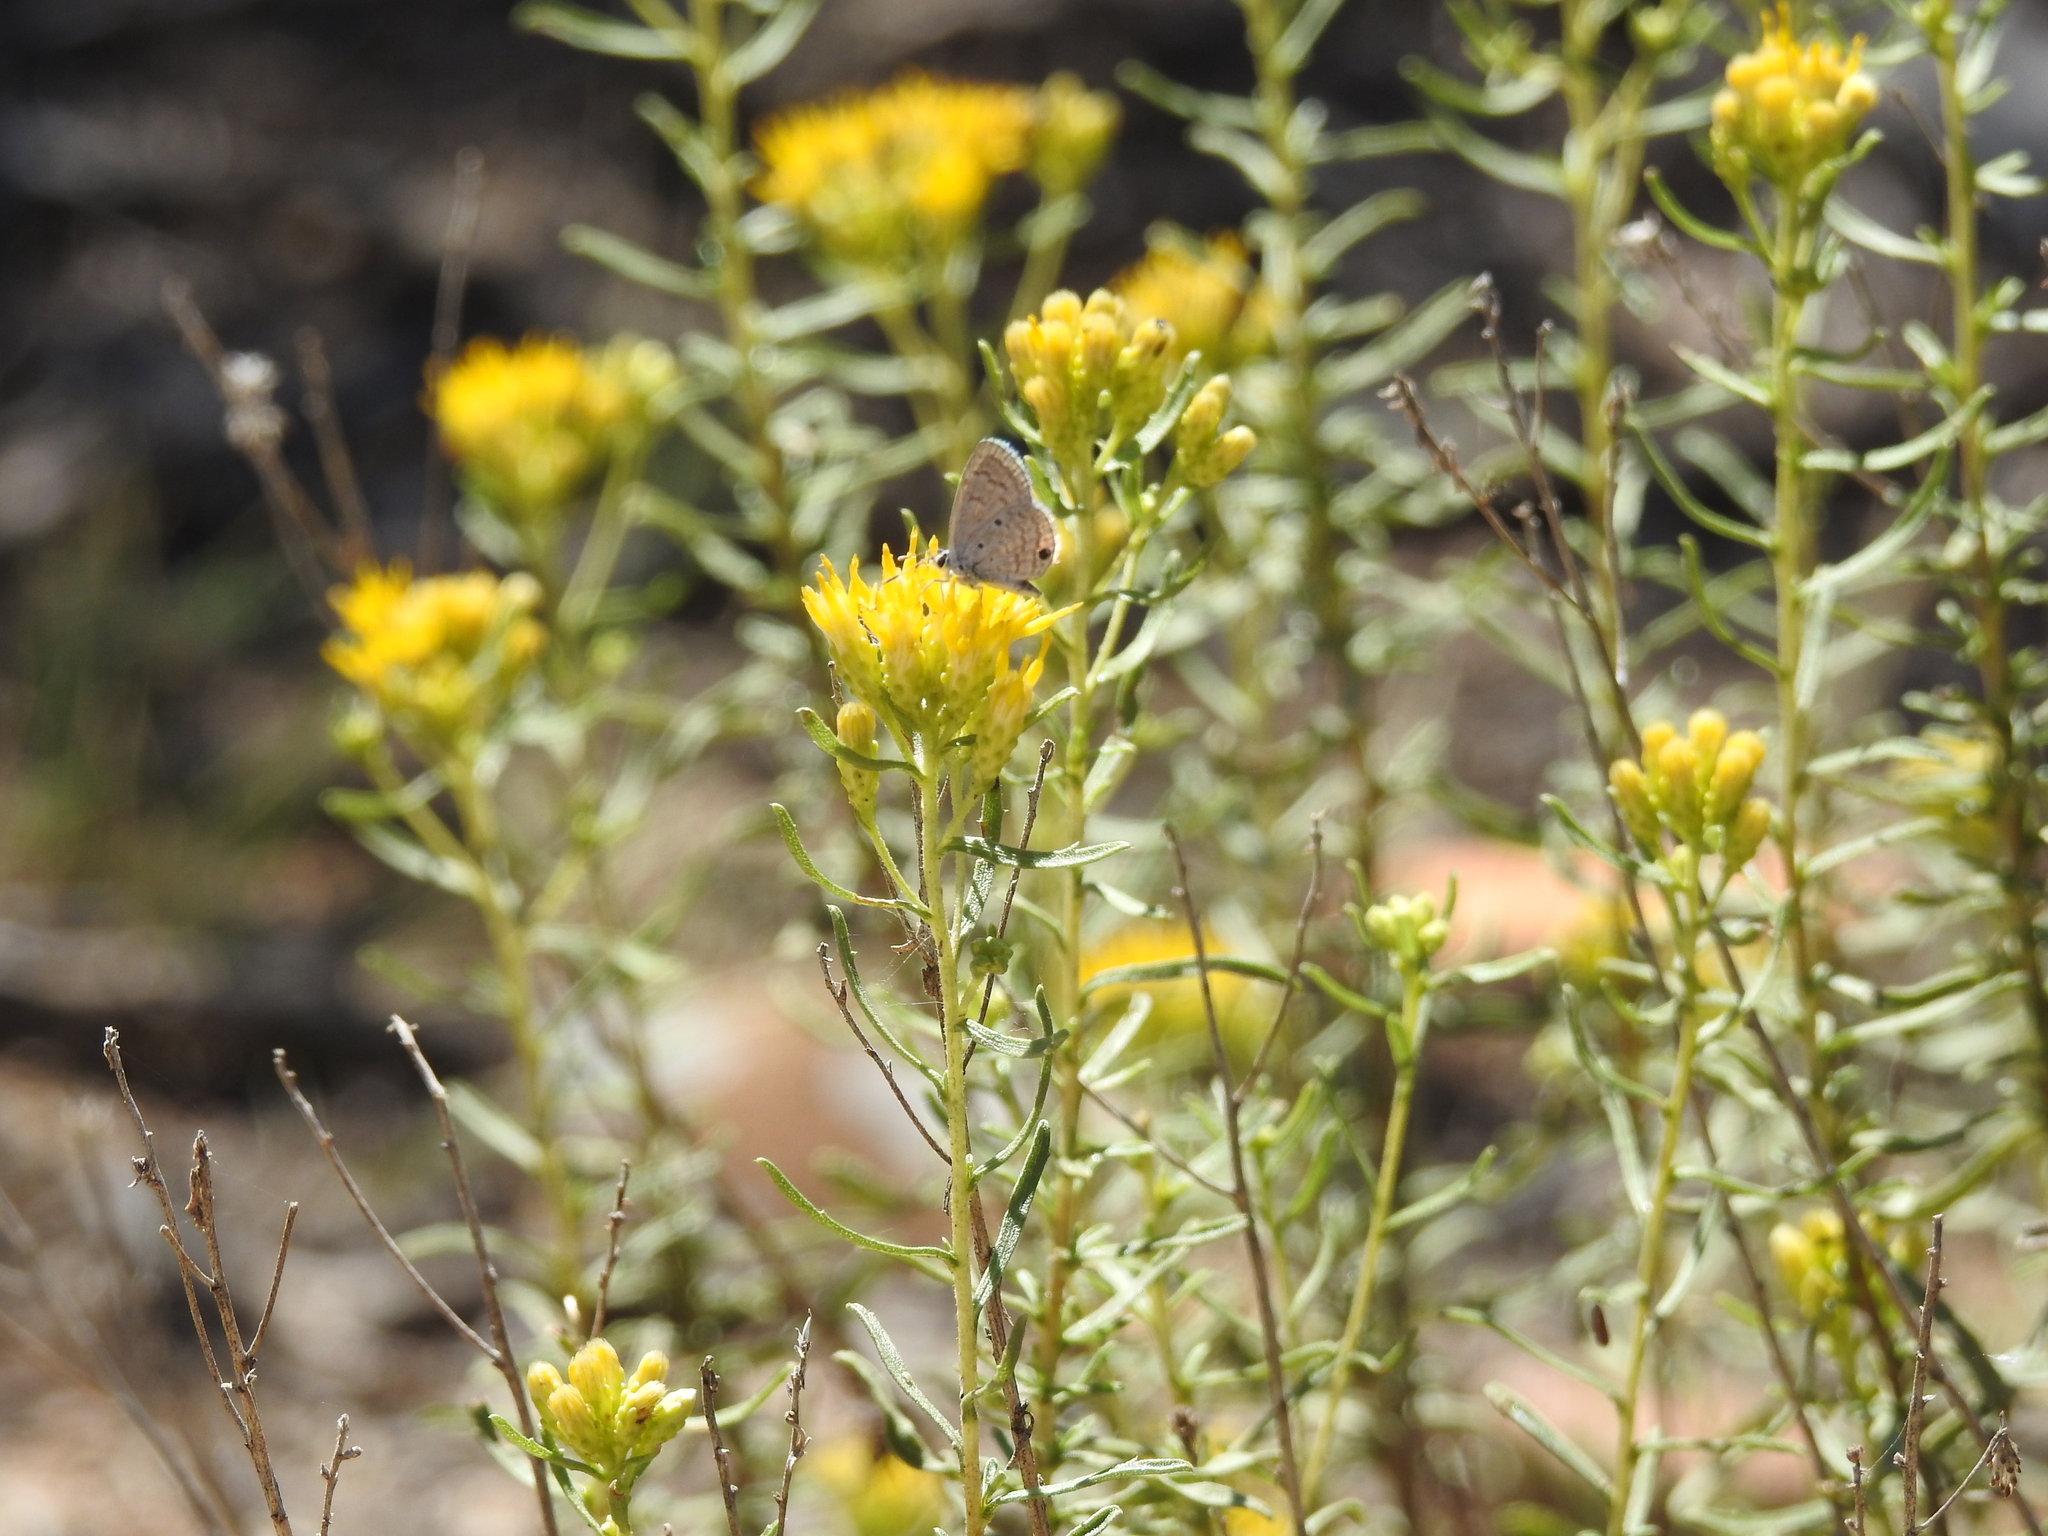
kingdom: Animalia
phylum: Arthropoda
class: Insecta
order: Lepidoptera
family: Lycaenidae
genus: Hemiargus
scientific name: Hemiargus ceraunus
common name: Ceraunus blue
